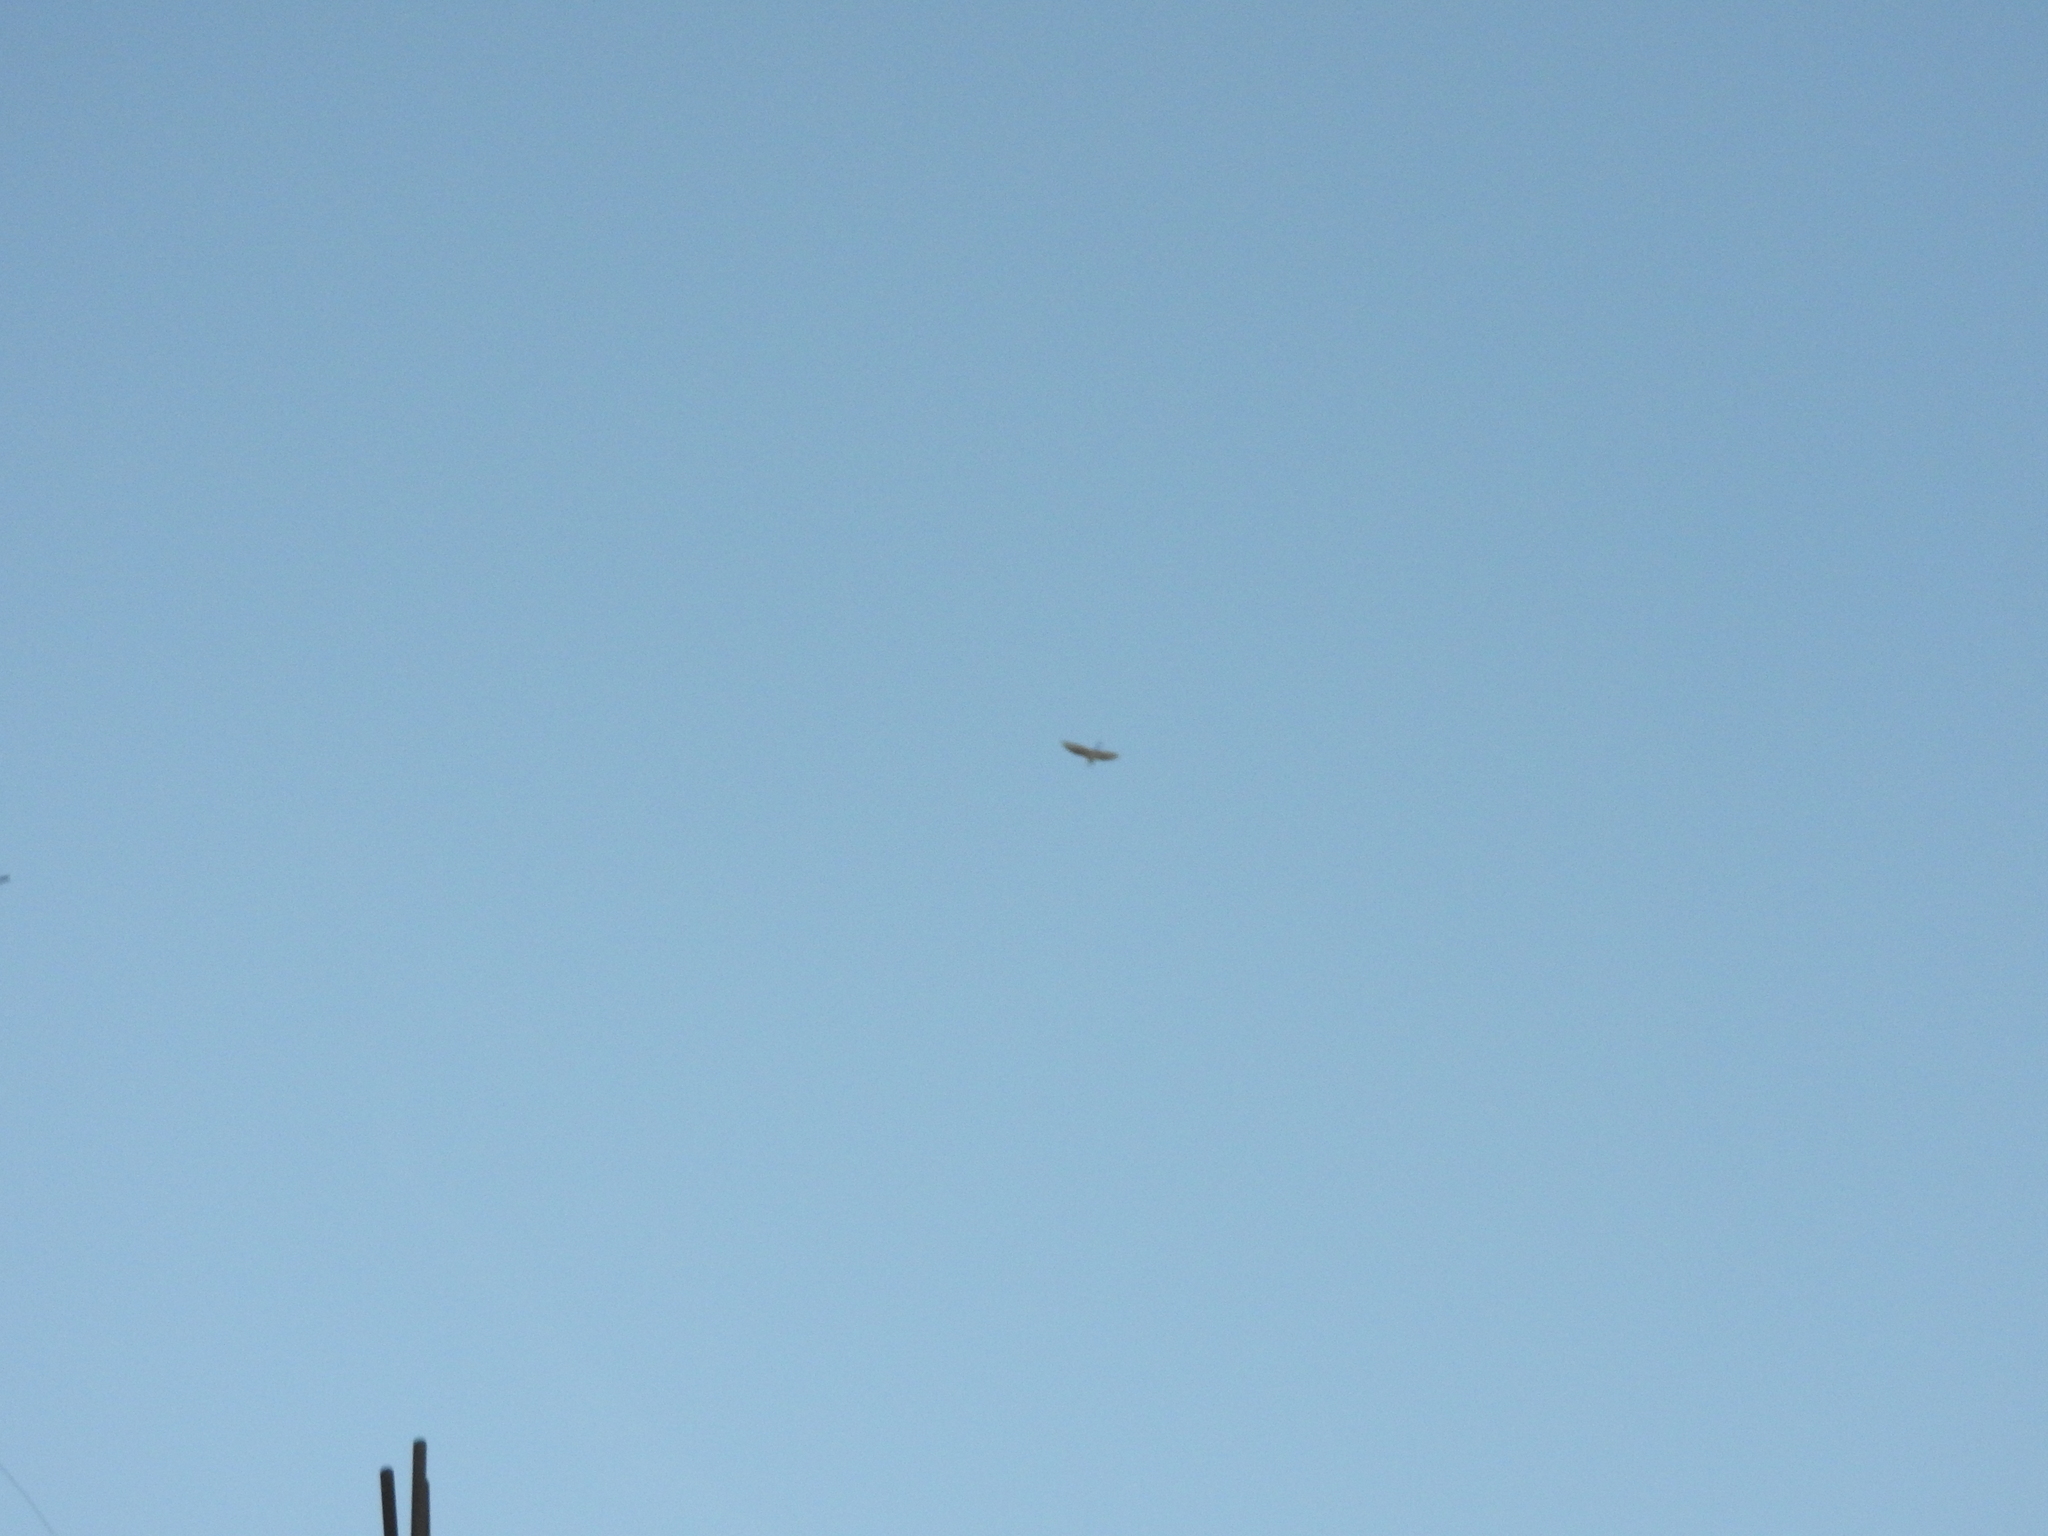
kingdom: Animalia
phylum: Chordata
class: Aves
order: Pelecaniformes
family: Ardeidae
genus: Bubulcus
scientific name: Bubulcus ibis
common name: Cattle egret
